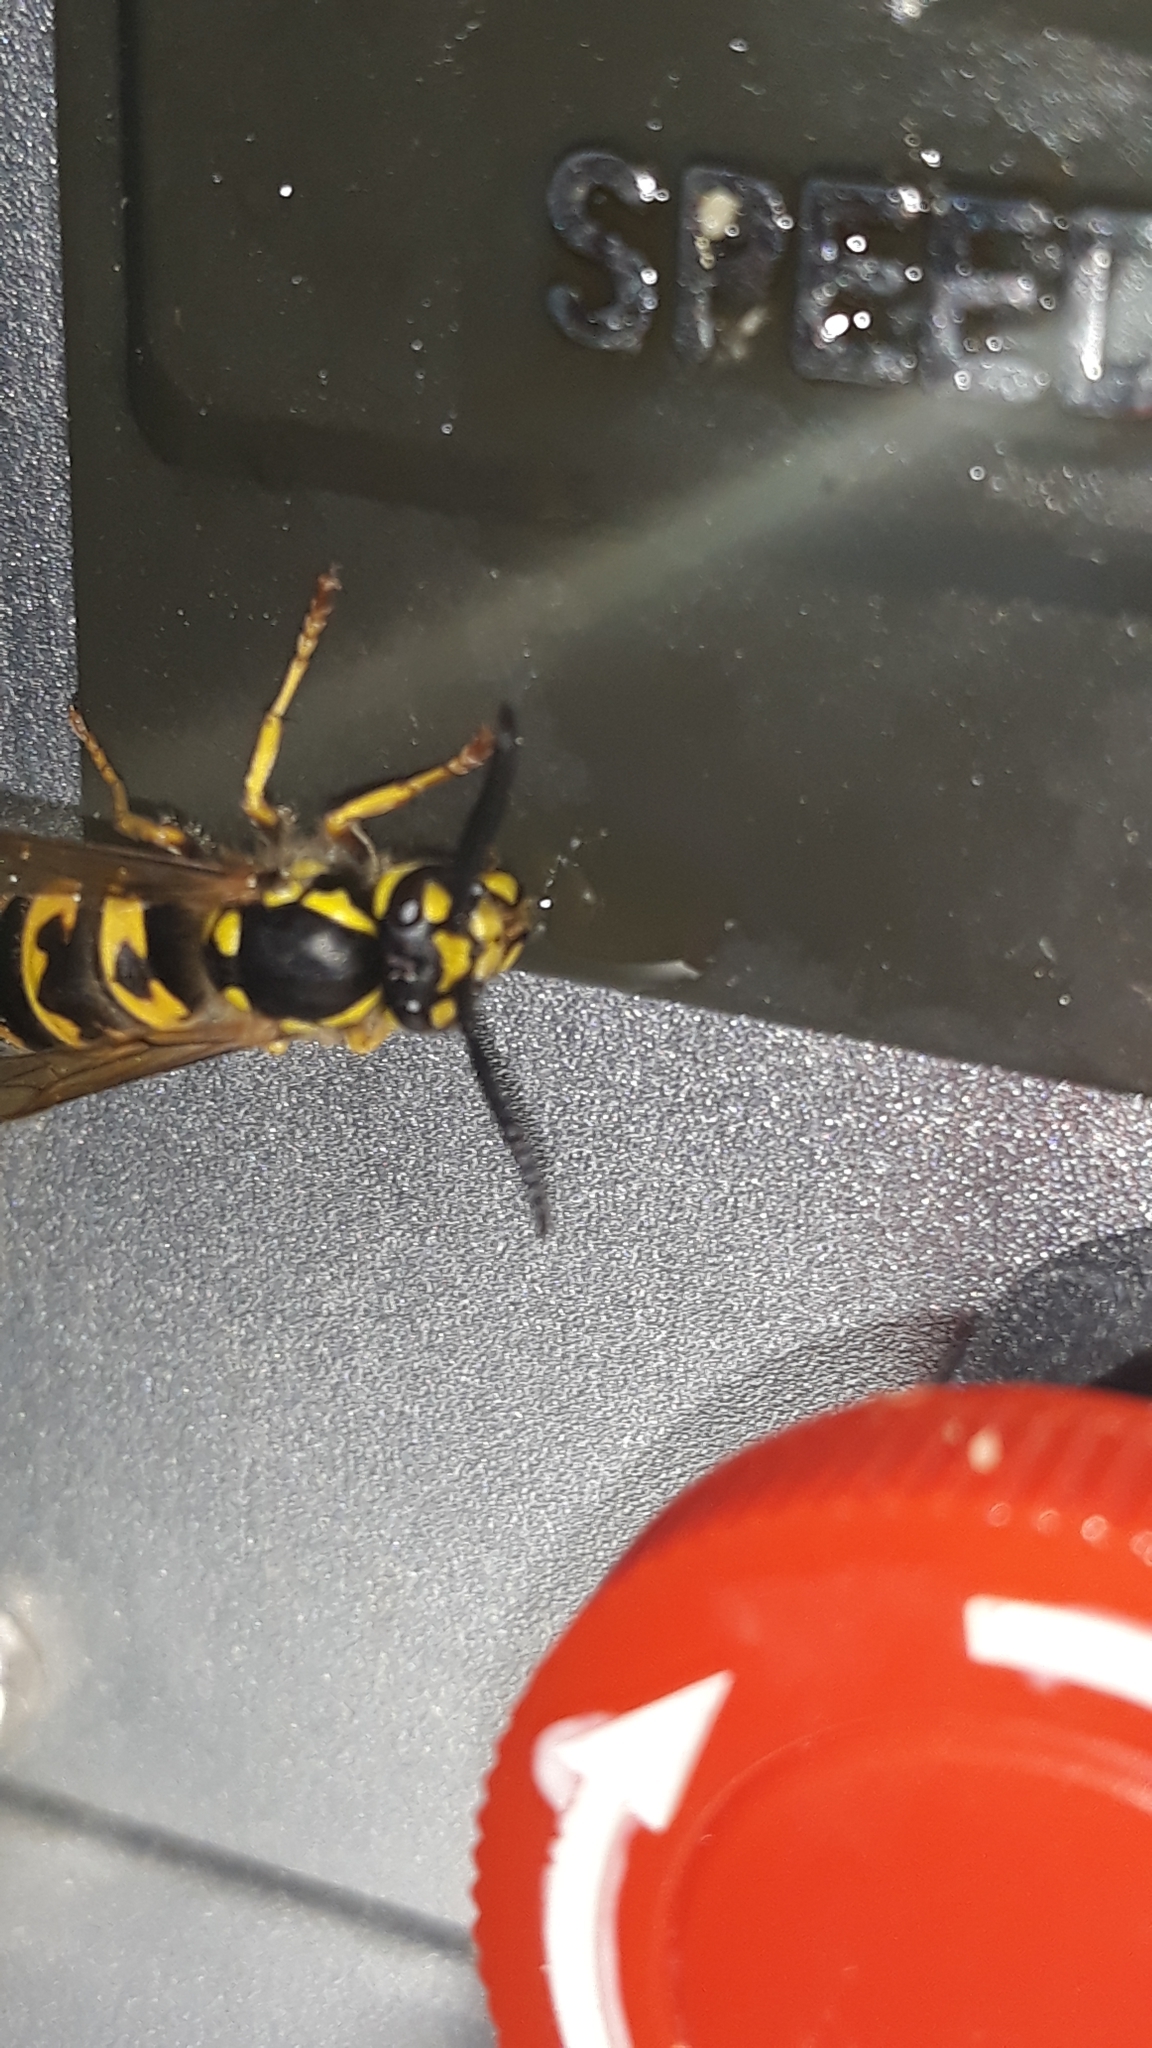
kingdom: Animalia
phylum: Arthropoda
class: Insecta
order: Hymenoptera
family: Vespidae
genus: Vespula
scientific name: Vespula germanica
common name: German wasp
